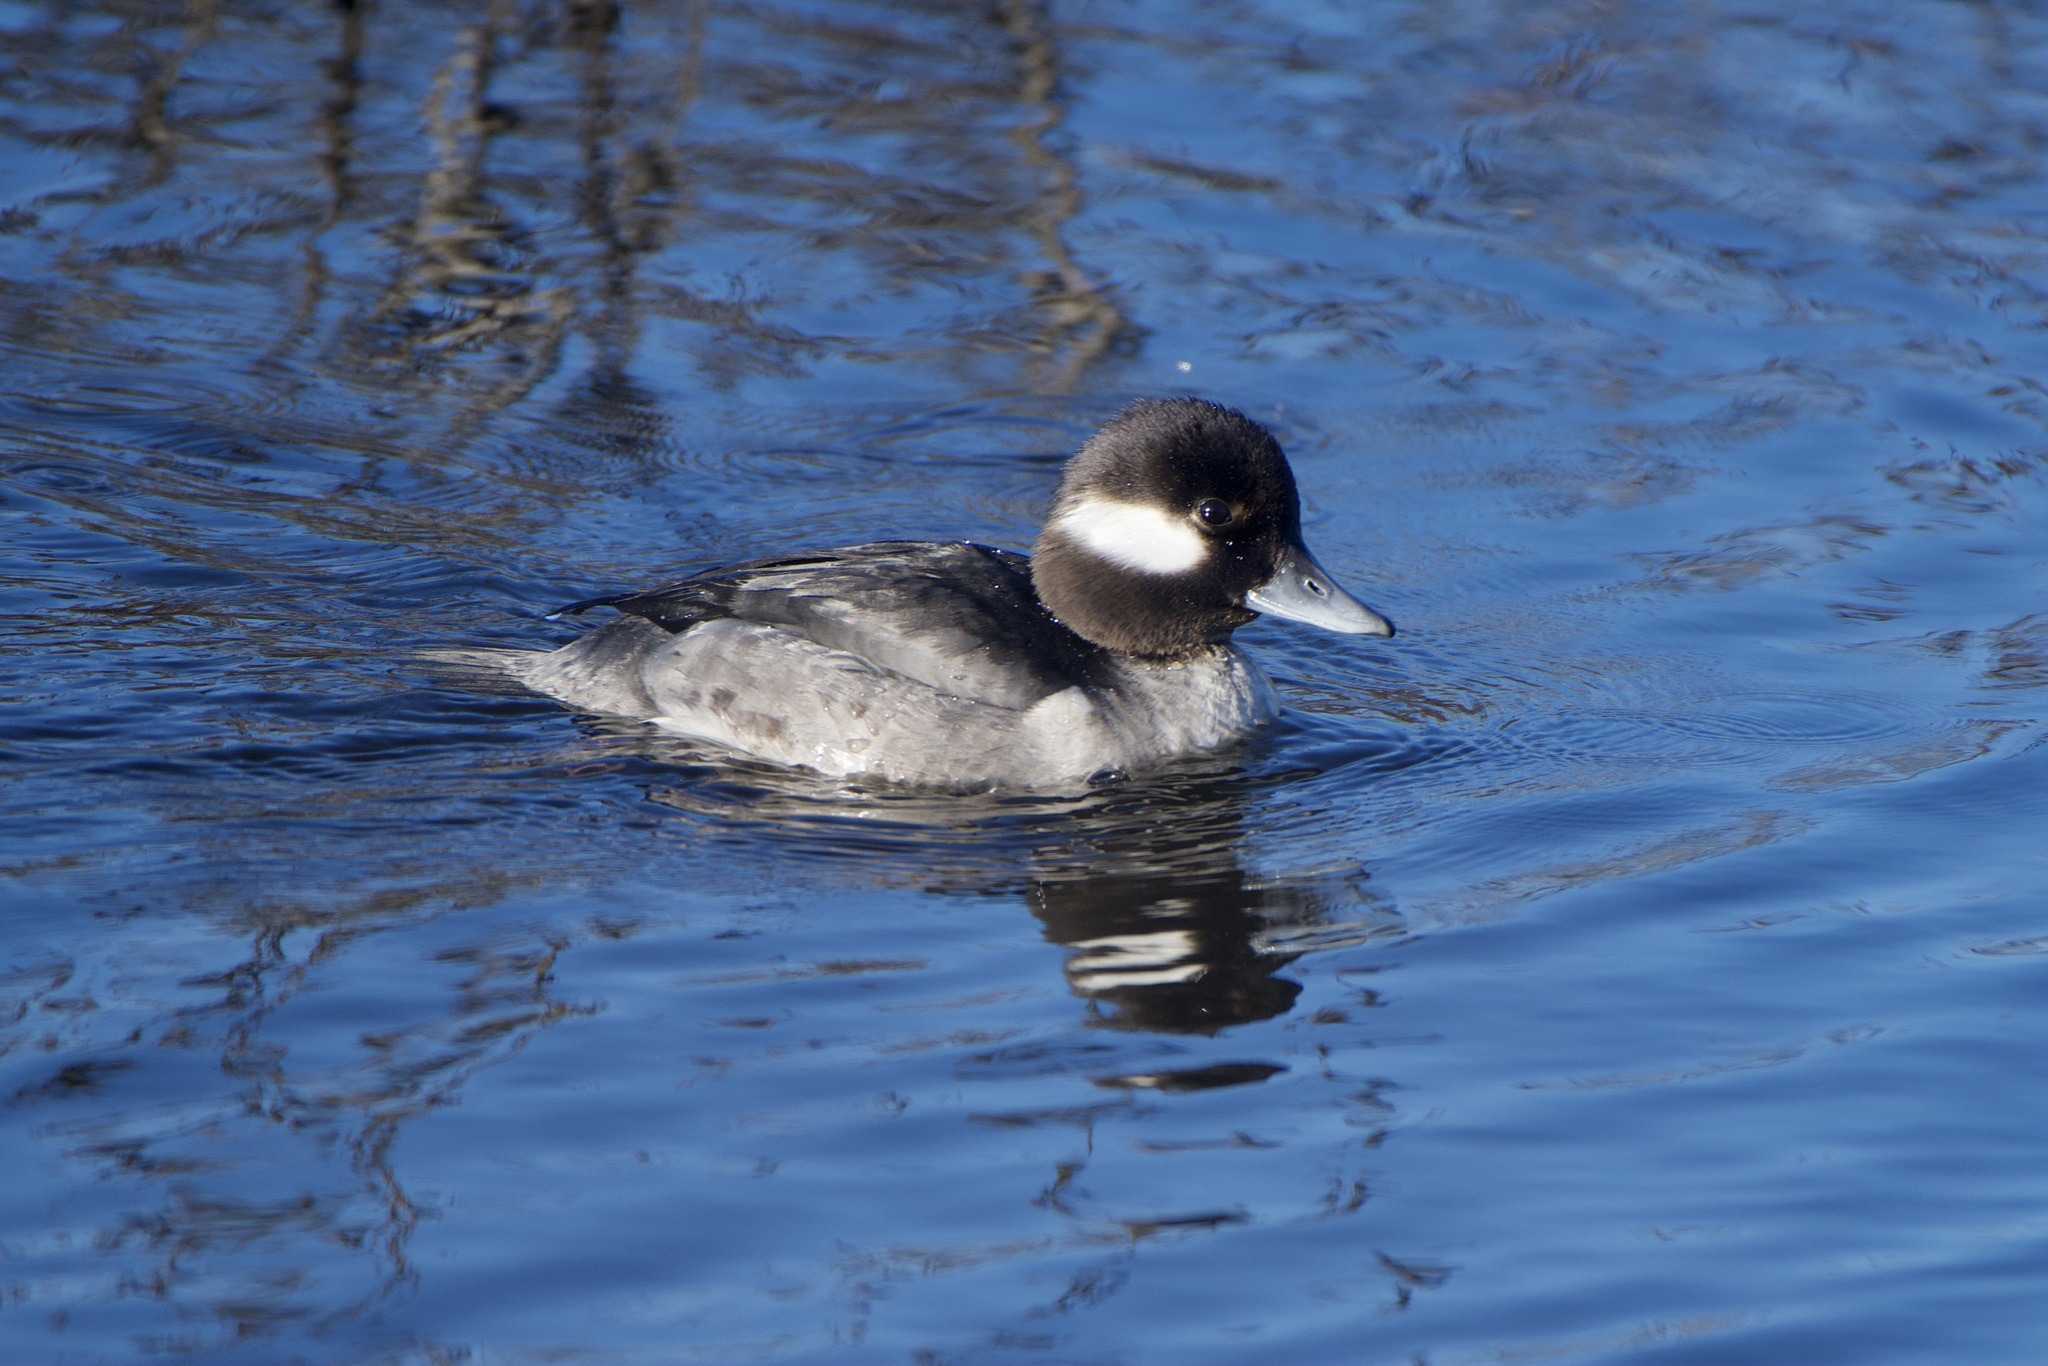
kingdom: Animalia
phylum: Chordata
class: Aves
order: Anseriformes
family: Anatidae
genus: Bucephala
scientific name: Bucephala albeola
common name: Bufflehead
